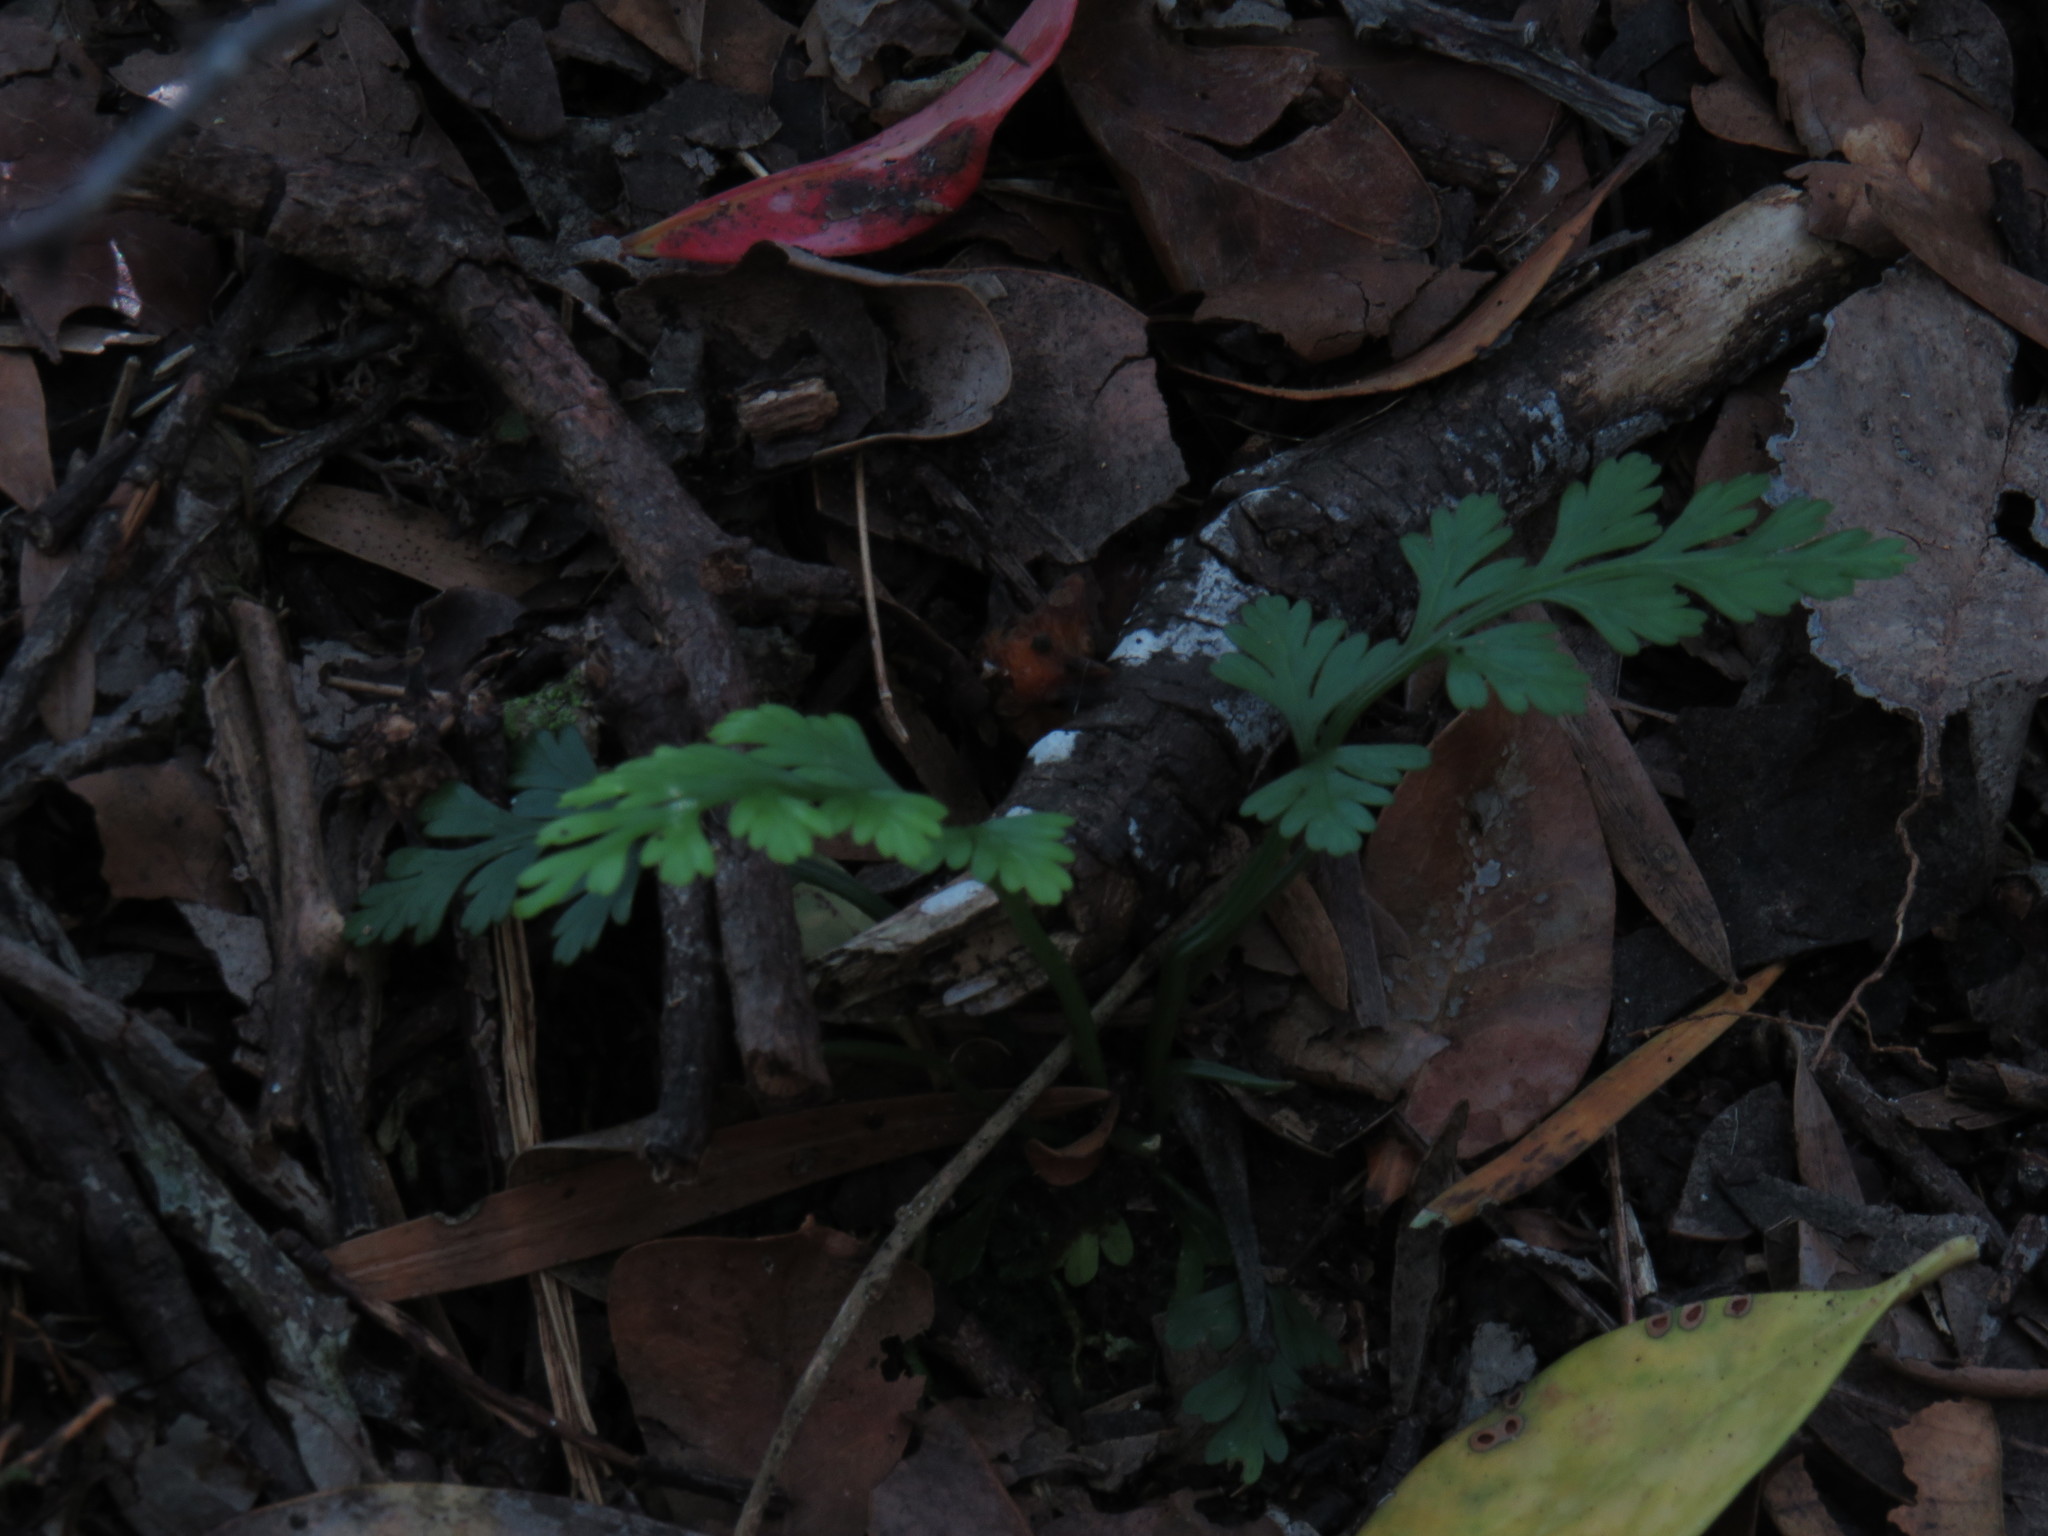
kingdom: Plantae
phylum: Tracheophyta
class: Polypodiopsida
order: Polypodiales
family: Aspleniaceae
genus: Asplenium
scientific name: Asplenium rutifolium
